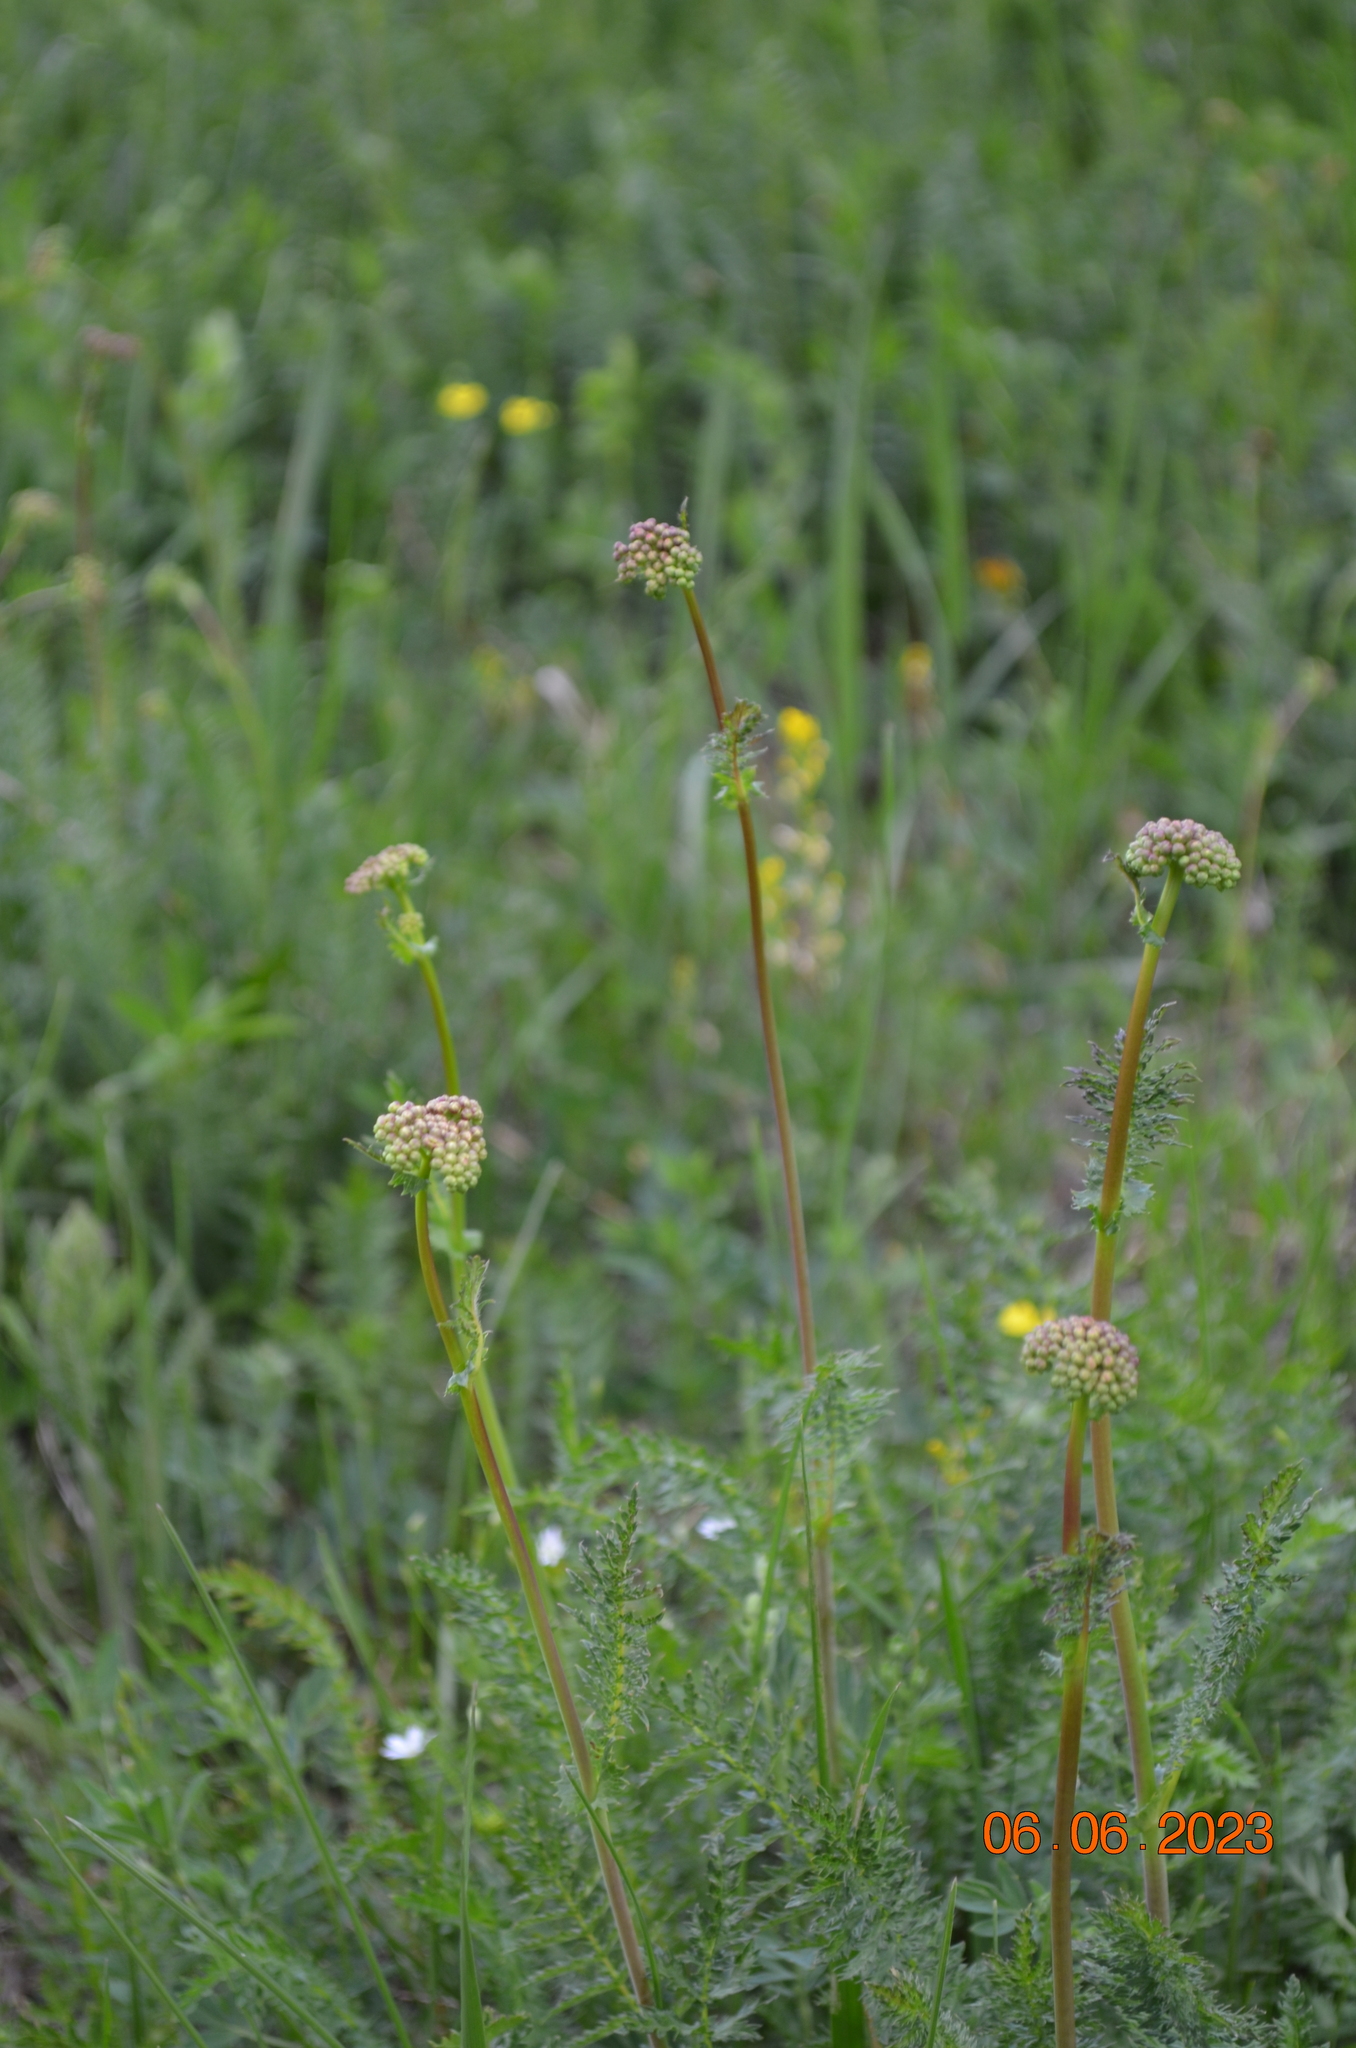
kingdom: Plantae
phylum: Tracheophyta
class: Magnoliopsida
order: Rosales
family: Rosaceae
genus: Filipendula
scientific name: Filipendula vulgaris
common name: Dropwort
